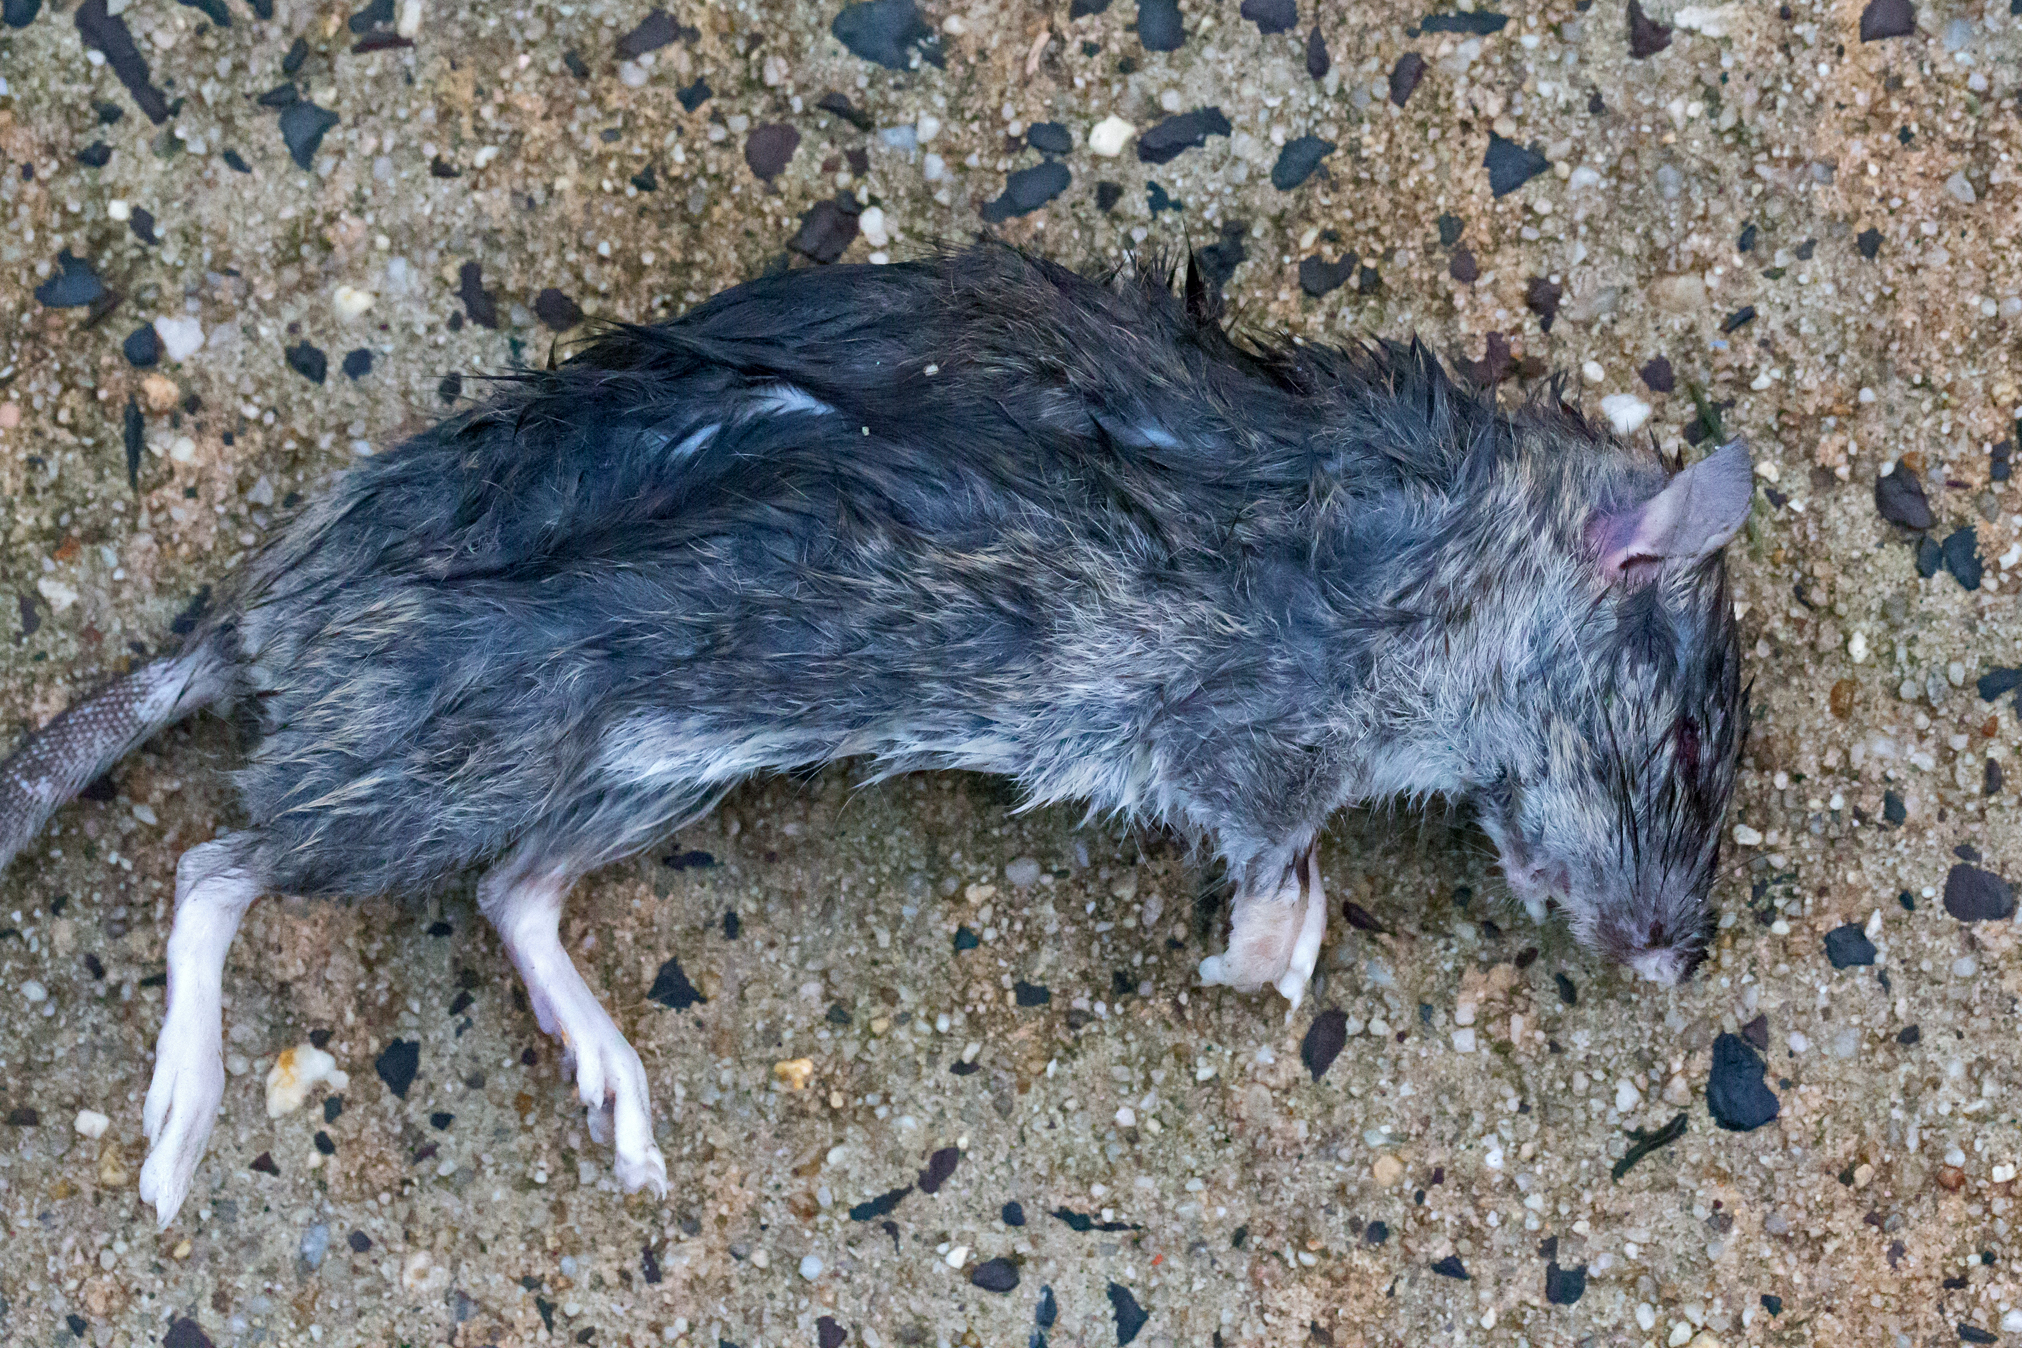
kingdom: Animalia
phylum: Chordata
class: Mammalia
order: Rodentia
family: Muridae
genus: Rattus
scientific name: Rattus norvegicus
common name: Brown rat
